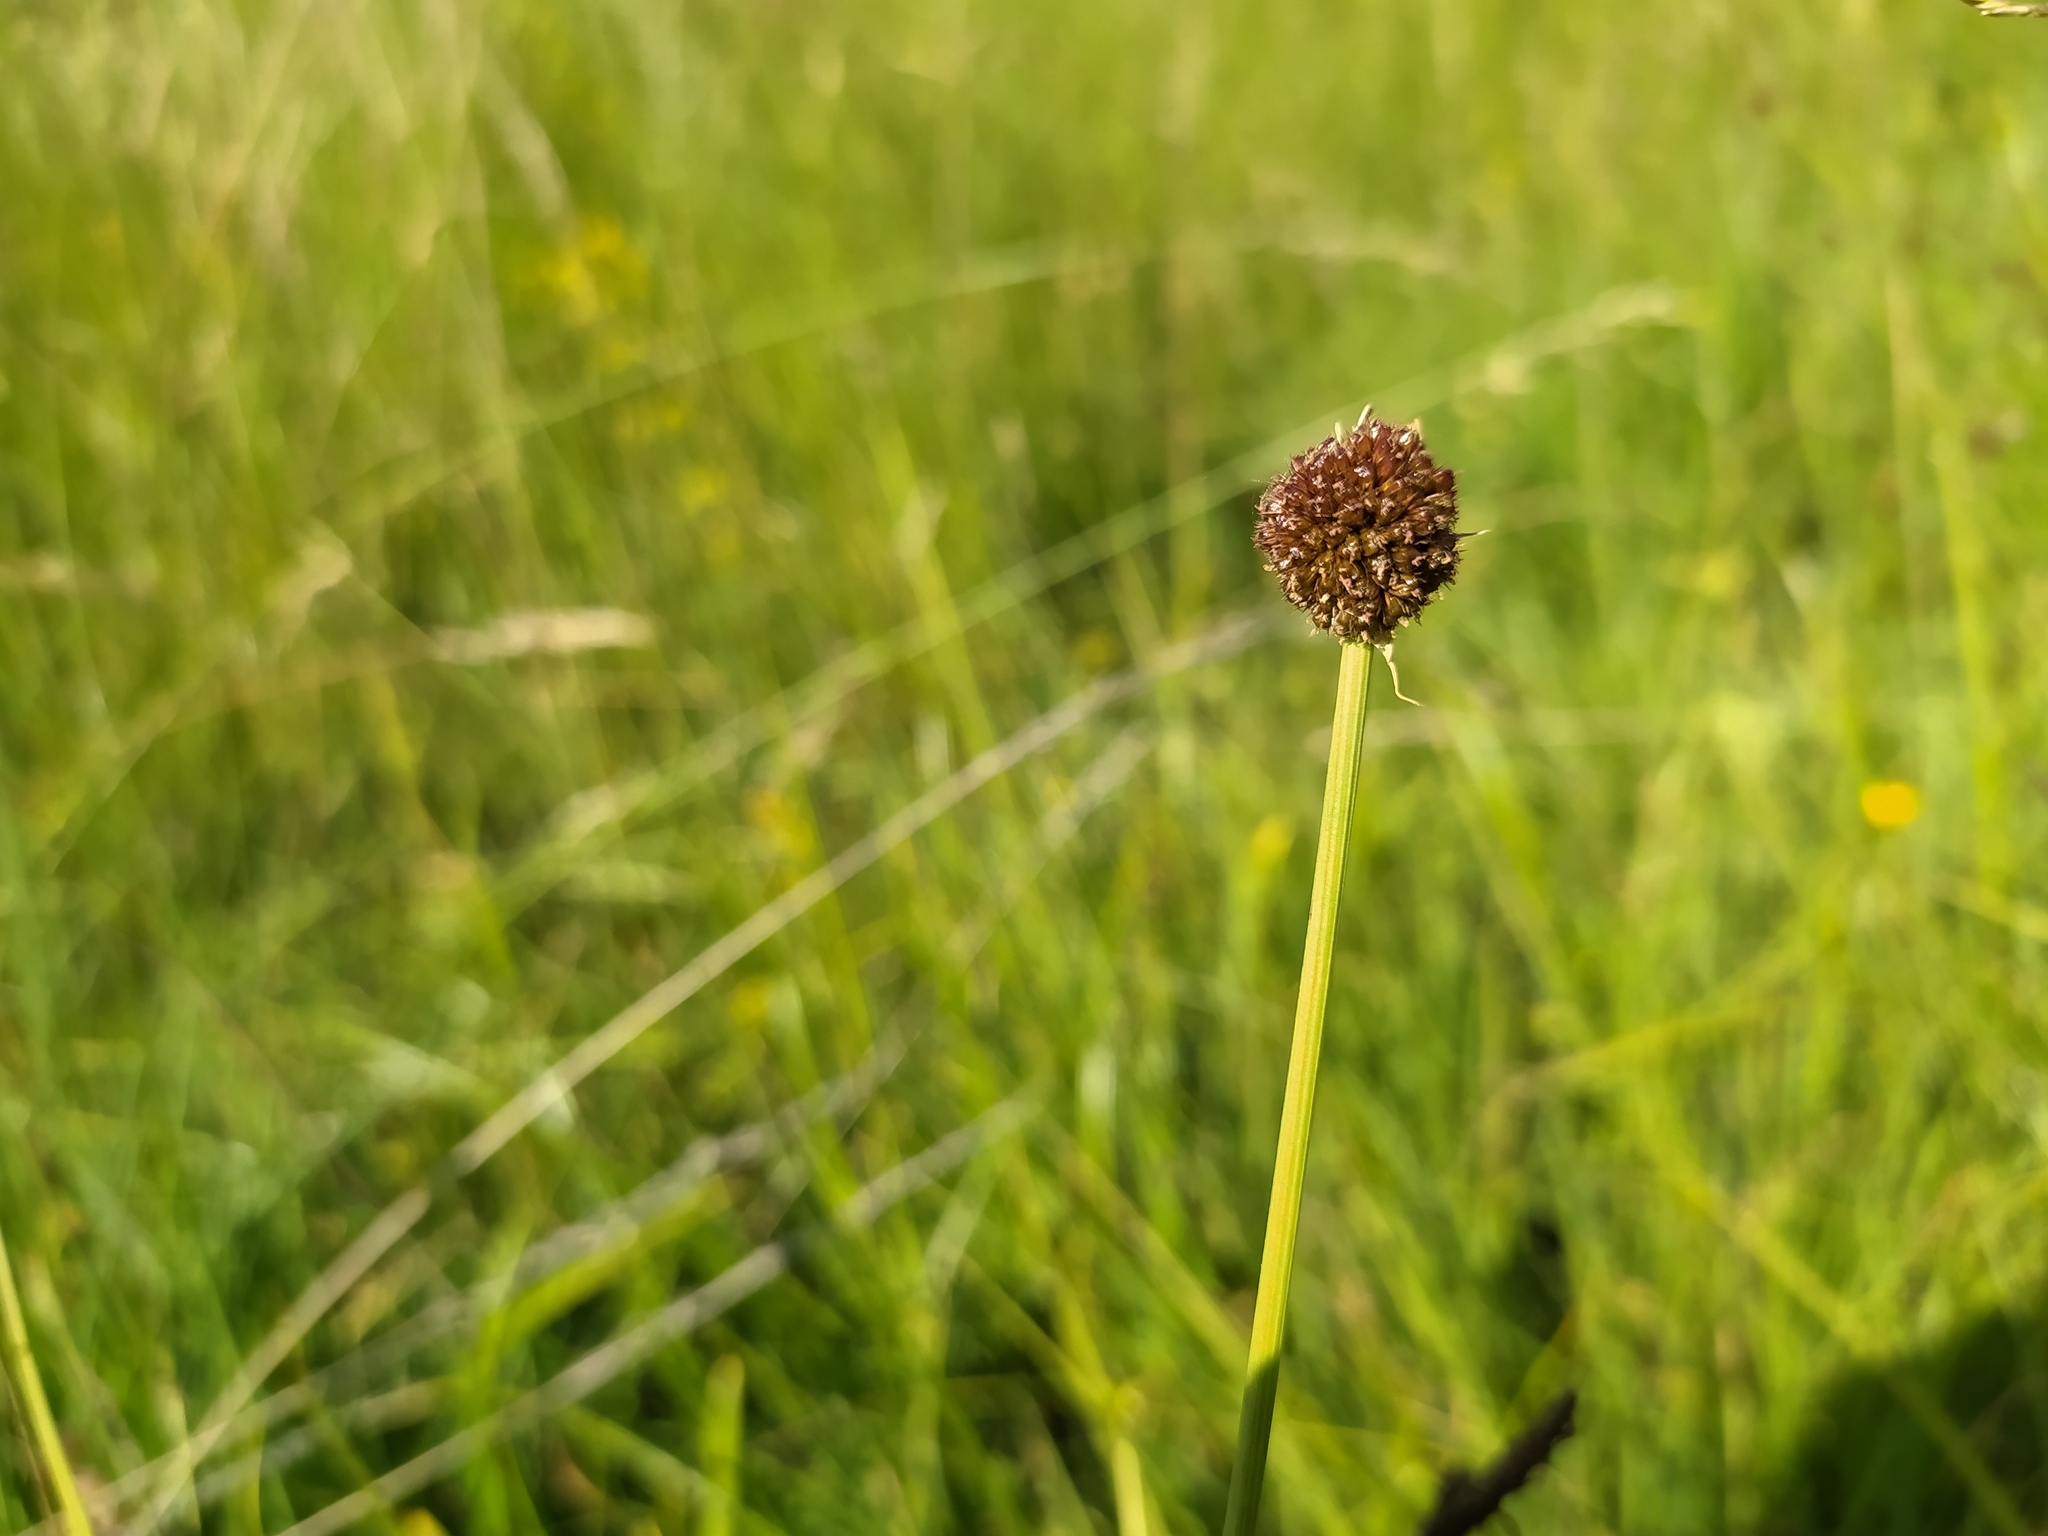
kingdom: Plantae
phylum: Tracheophyta
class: Liliopsida
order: Poales
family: Juncaceae
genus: Juncus
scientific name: Juncus conglomeratus
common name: Compact rush
